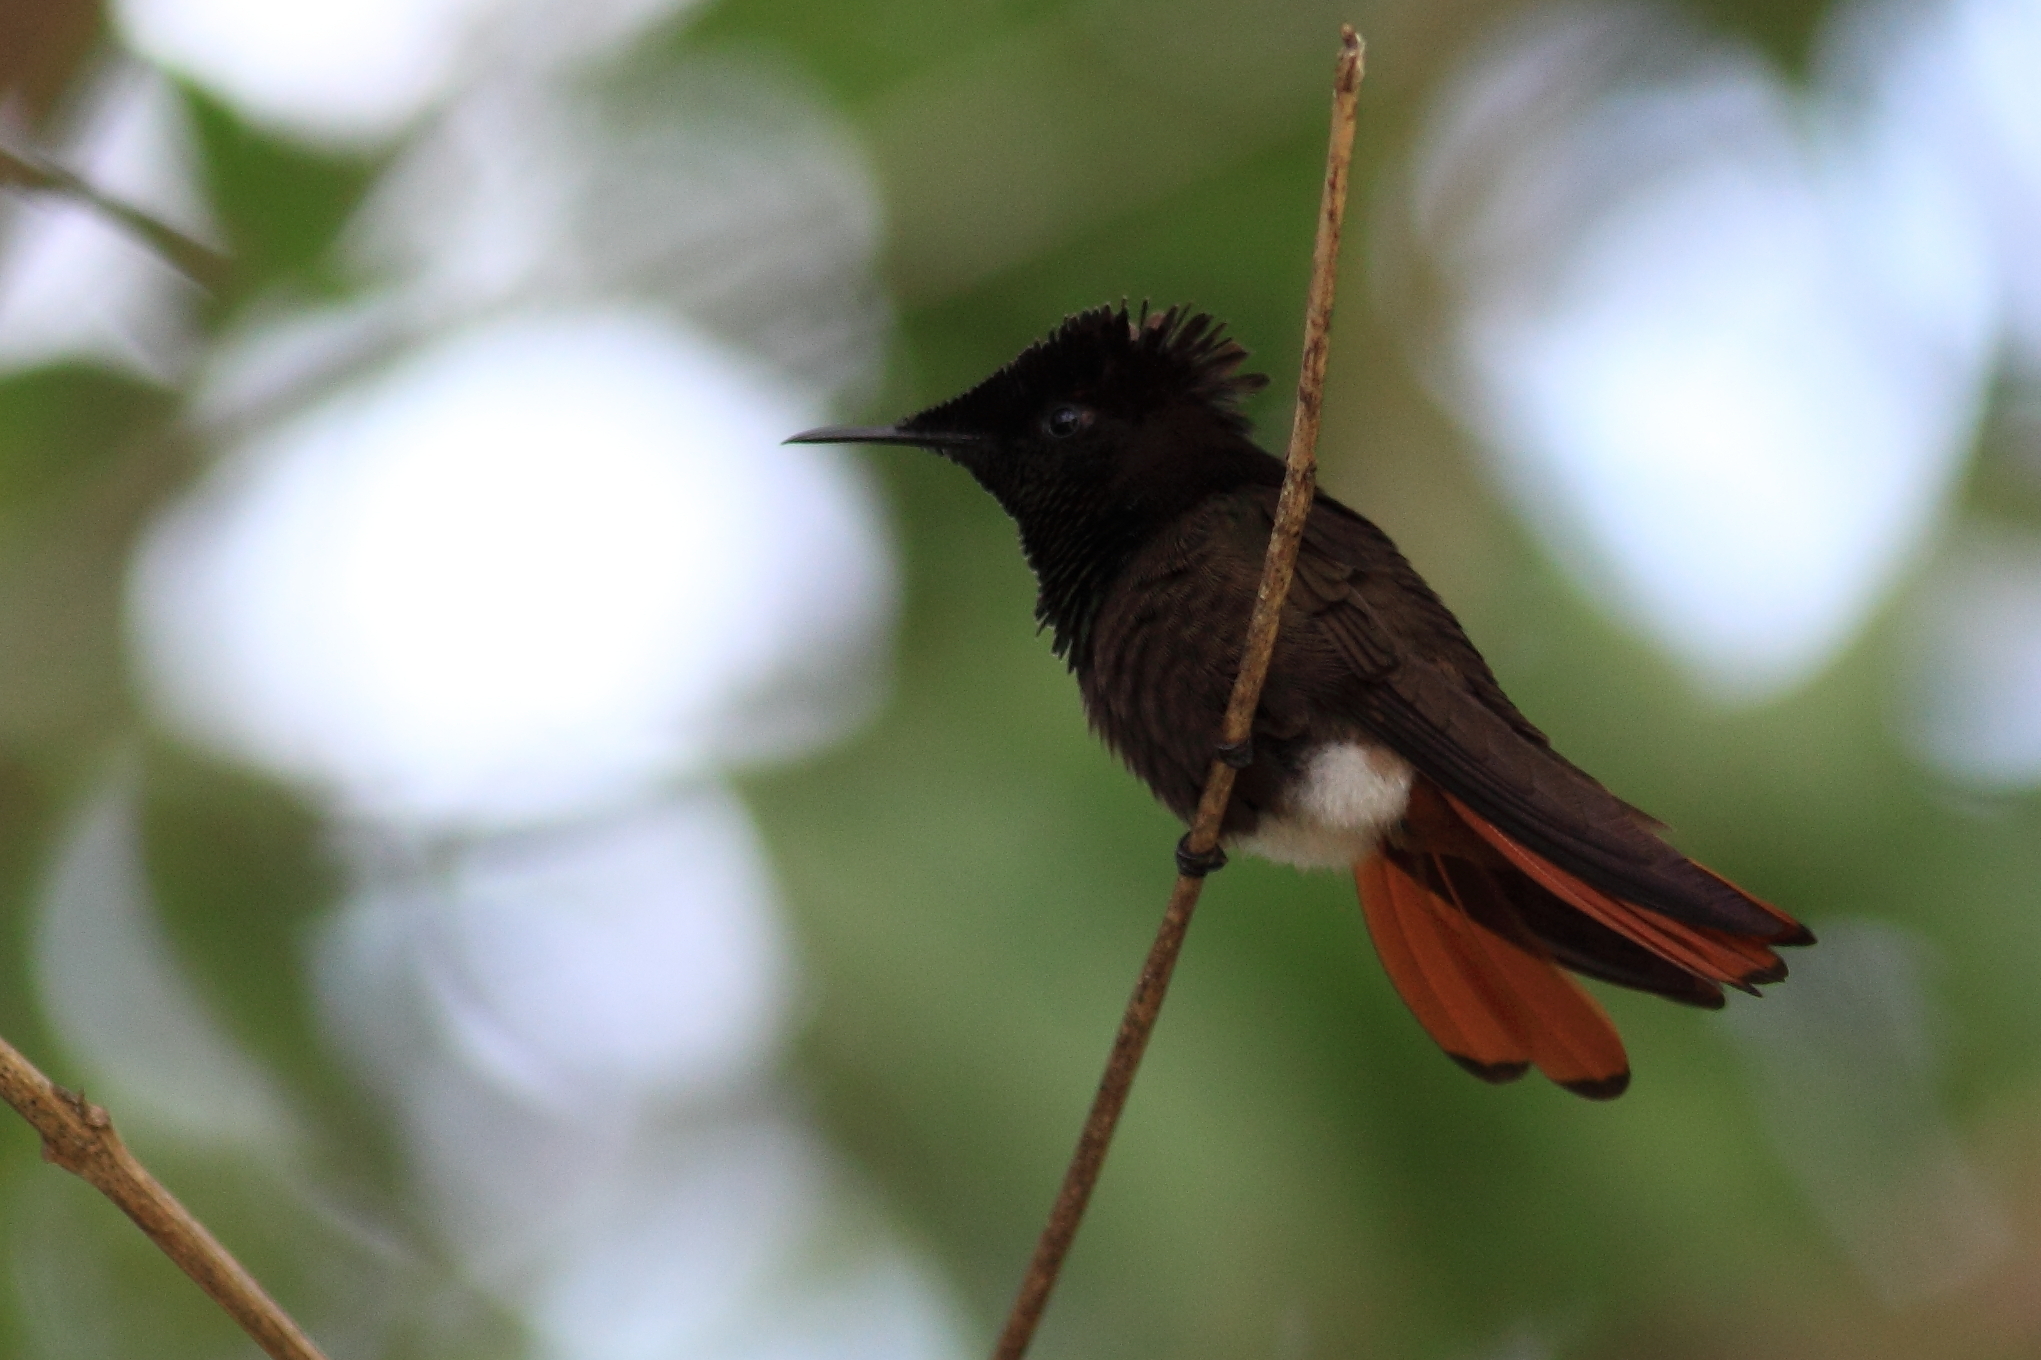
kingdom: Animalia
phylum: Chordata
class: Aves
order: Apodiformes
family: Trochilidae
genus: Chrysolampis
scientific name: Chrysolampis mosquitus
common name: Ruby-topaz hummingbird
